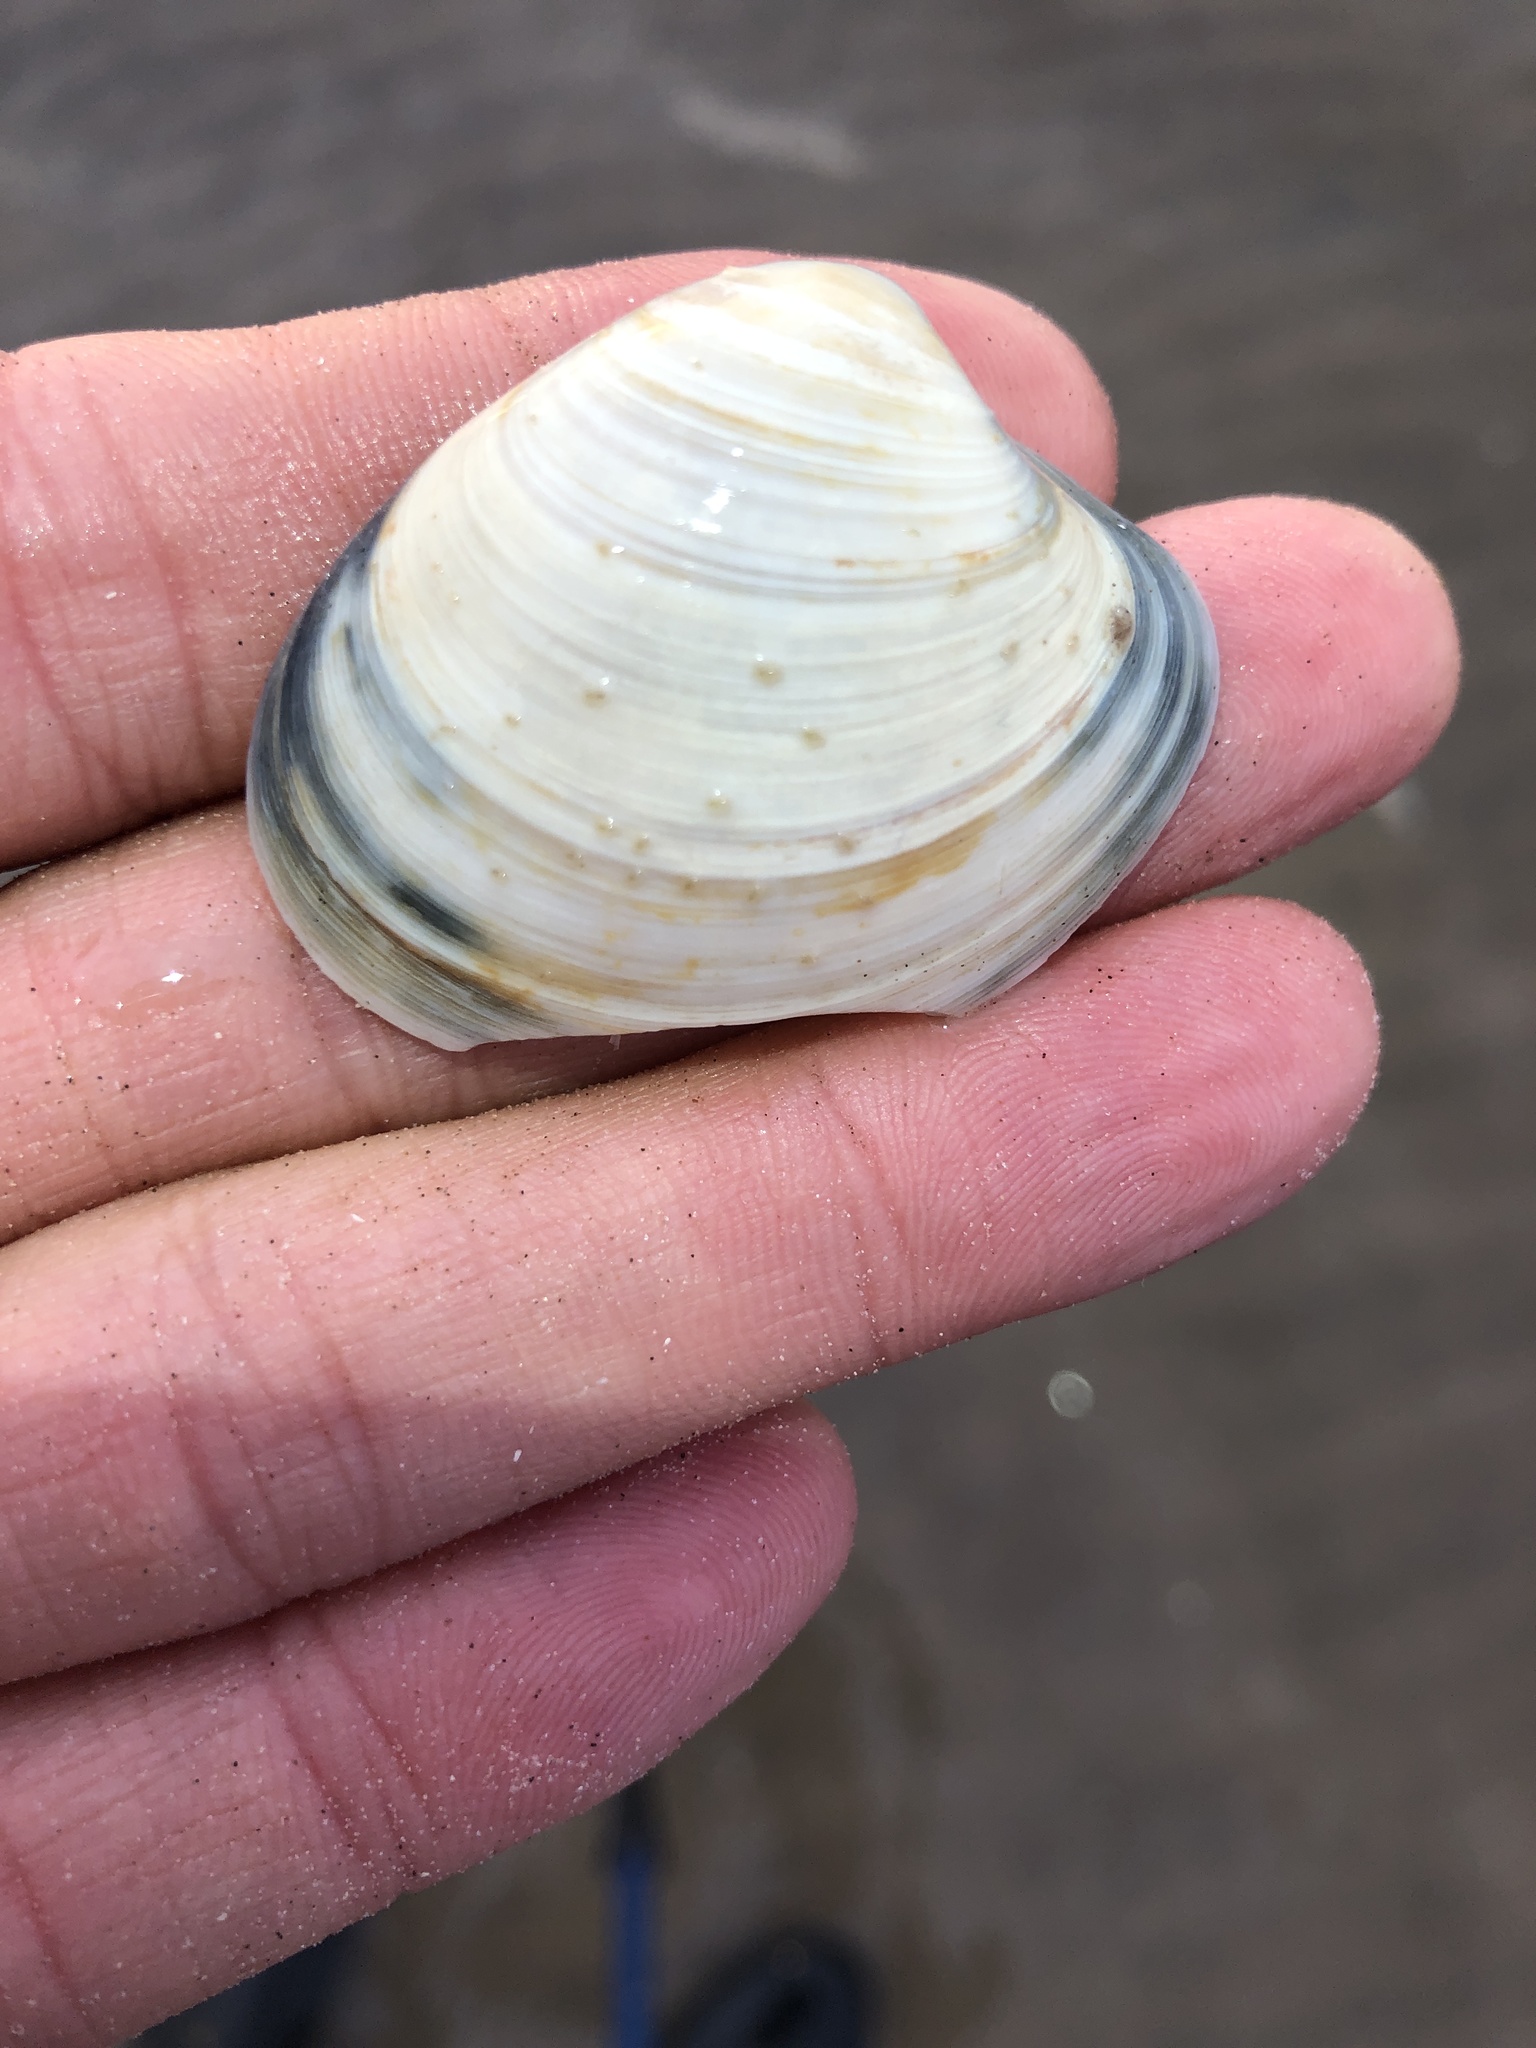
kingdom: Animalia
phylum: Mollusca
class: Bivalvia
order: Venerida
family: Veneridae
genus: Agriopoma
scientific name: Agriopoma texasianum
